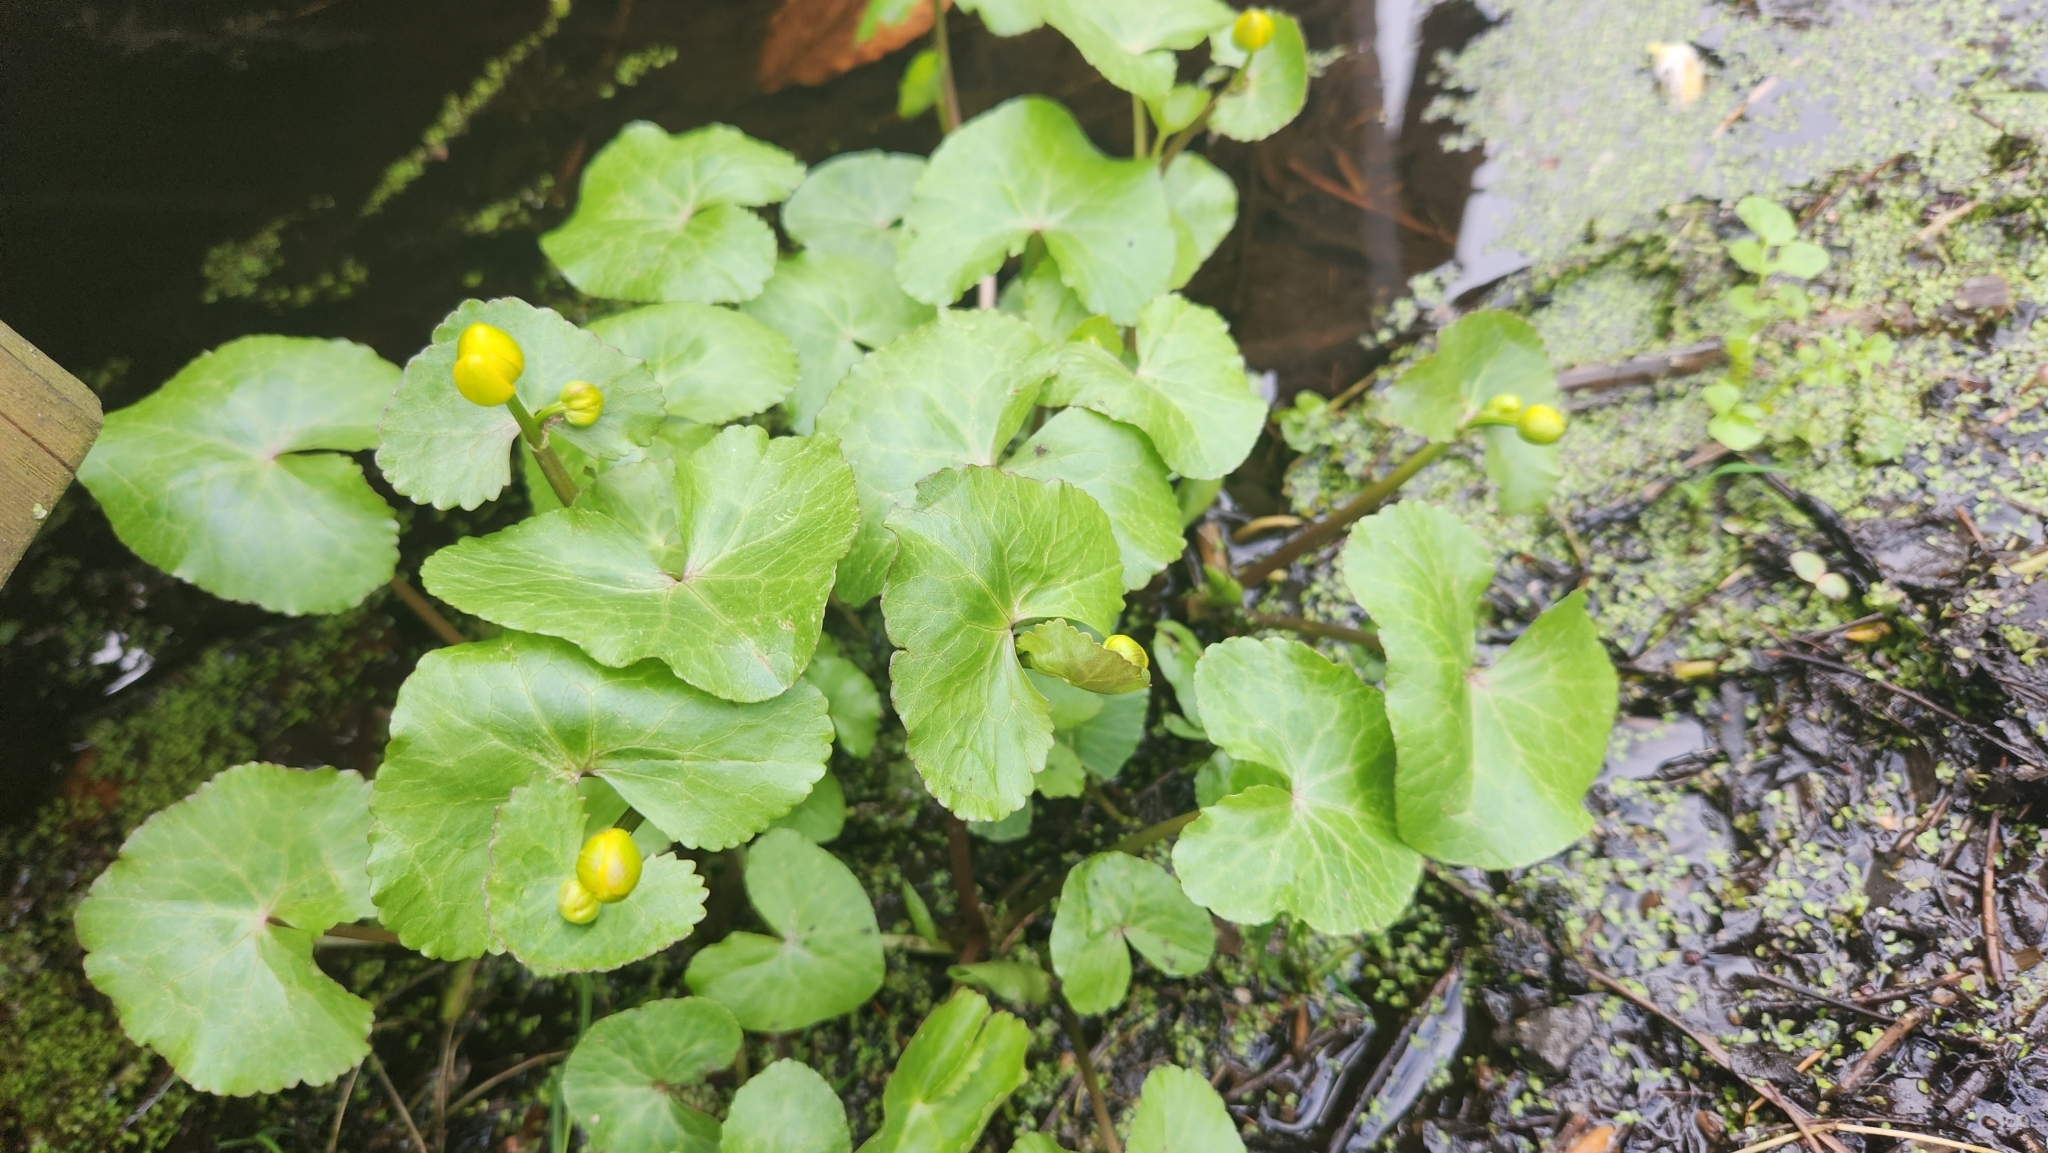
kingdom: Plantae
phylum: Tracheophyta
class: Magnoliopsida
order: Ranunculales
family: Ranunculaceae
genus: Caltha
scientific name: Caltha palustris
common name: Marsh marigold
